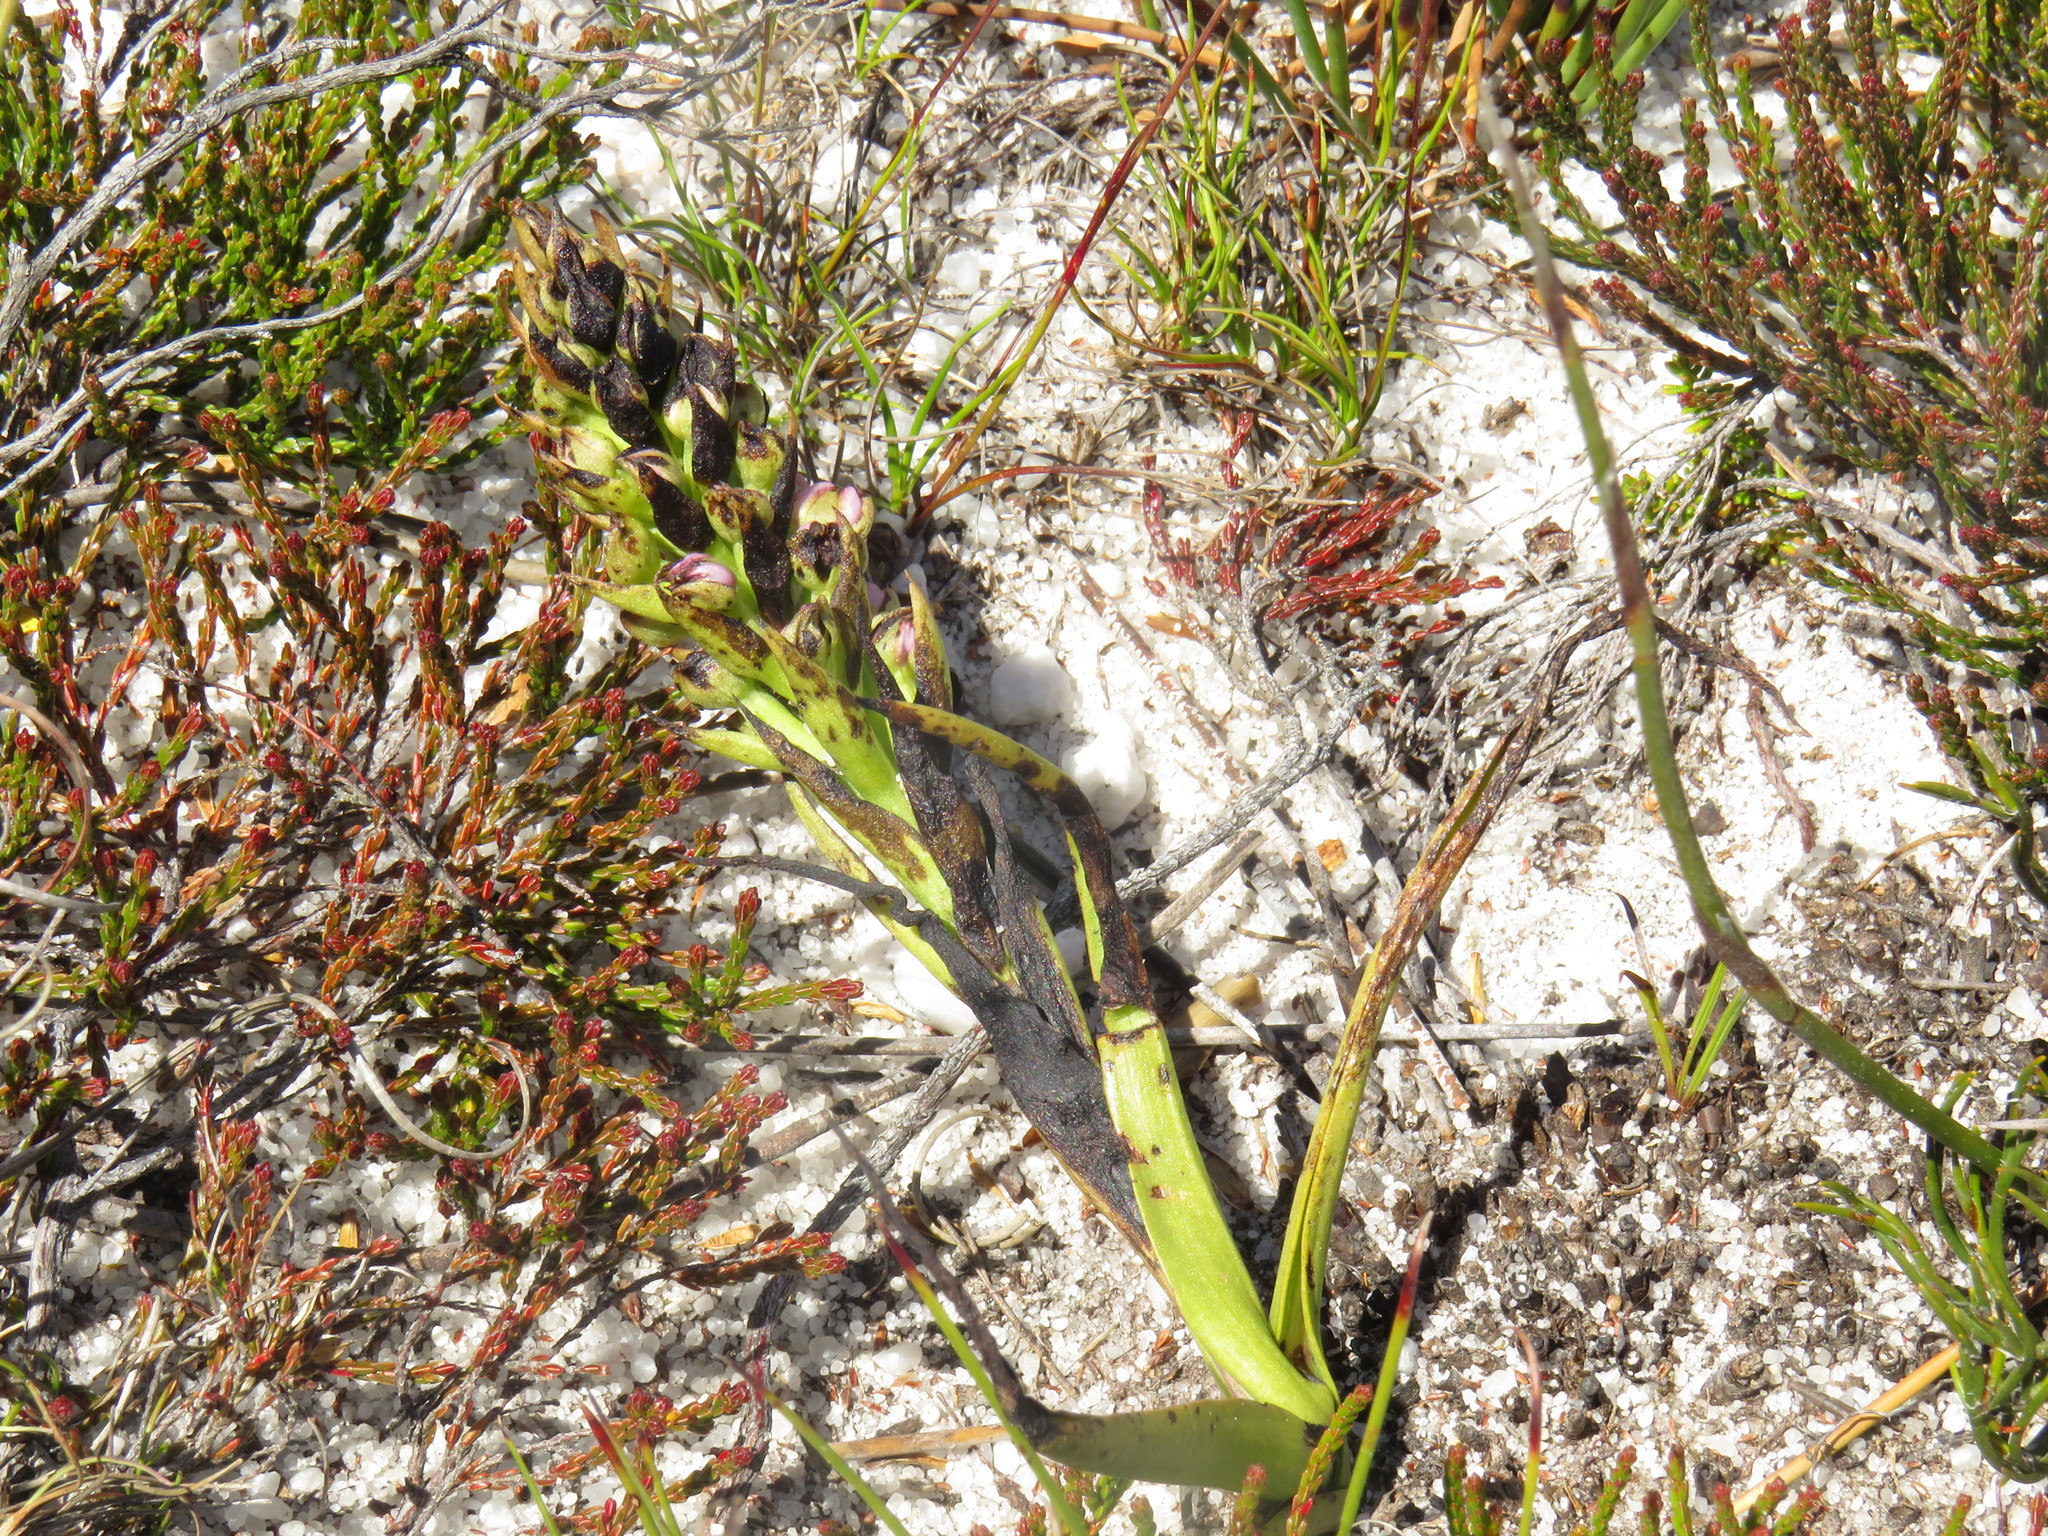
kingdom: Plantae
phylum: Tracheophyta
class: Liliopsida
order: Asparagales
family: Orchidaceae
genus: Evotella
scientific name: Evotella carnosa
